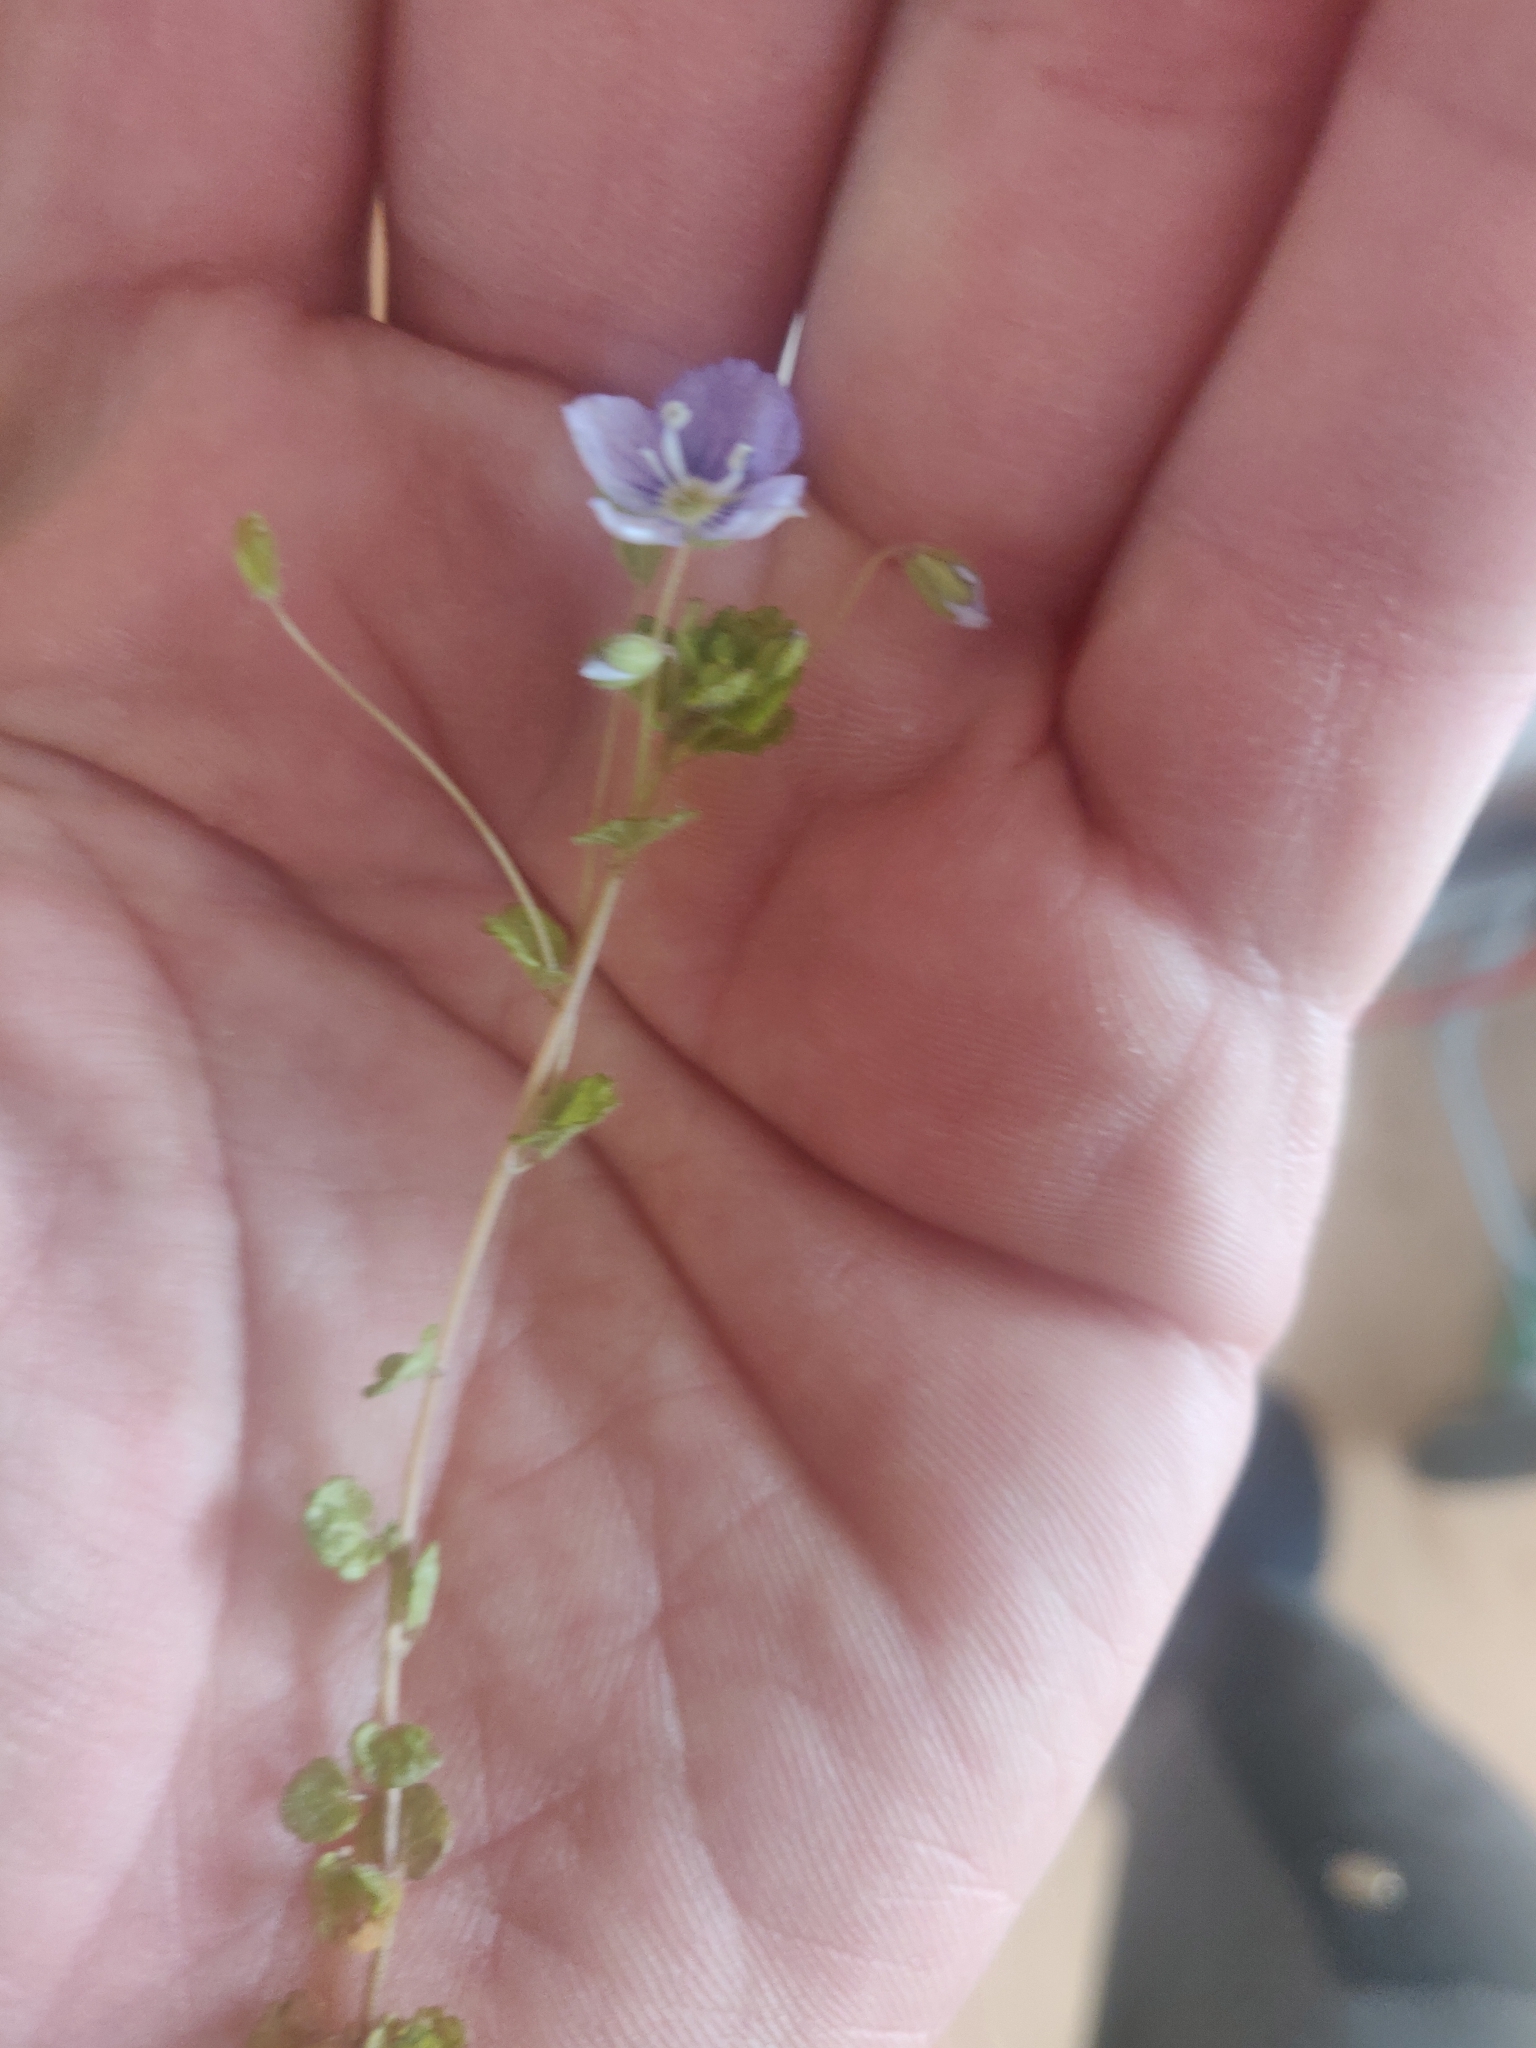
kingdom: Plantae
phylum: Tracheophyta
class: Magnoliopsida
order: Lamiales
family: Plantaginaceae
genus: Veronica
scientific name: Veronica filiformis
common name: Slender speedwell
